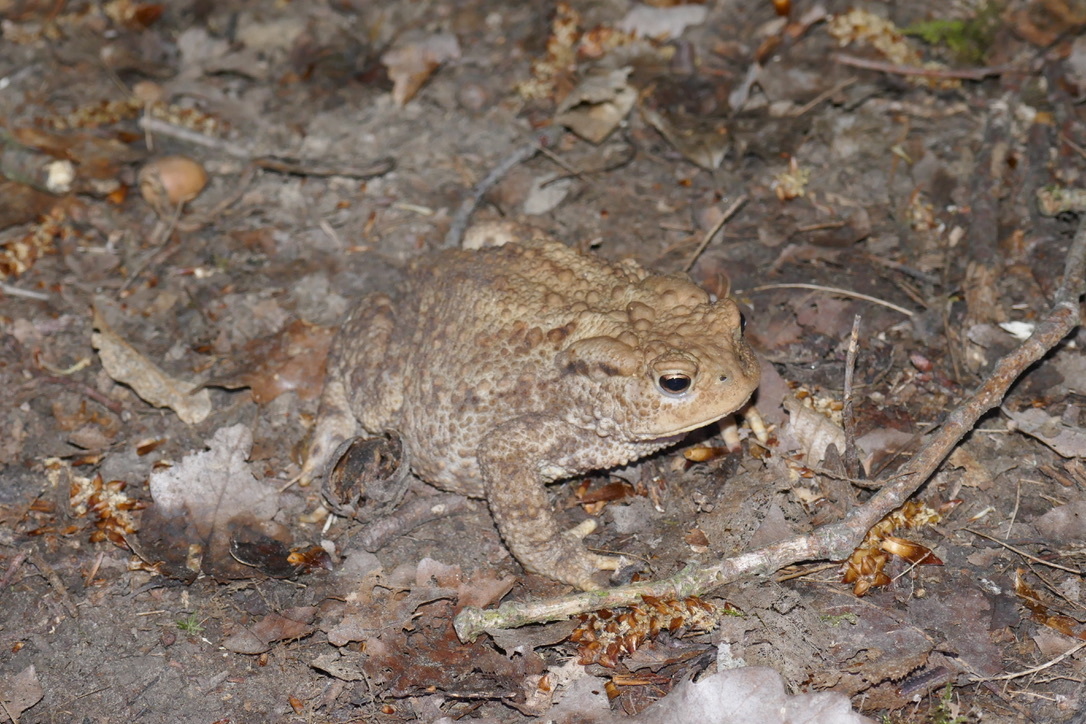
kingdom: Animalia
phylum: Chordata
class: Amphibia
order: Anura
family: Bufonidae
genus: Bufo
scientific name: Bufo bufo
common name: Common toad
